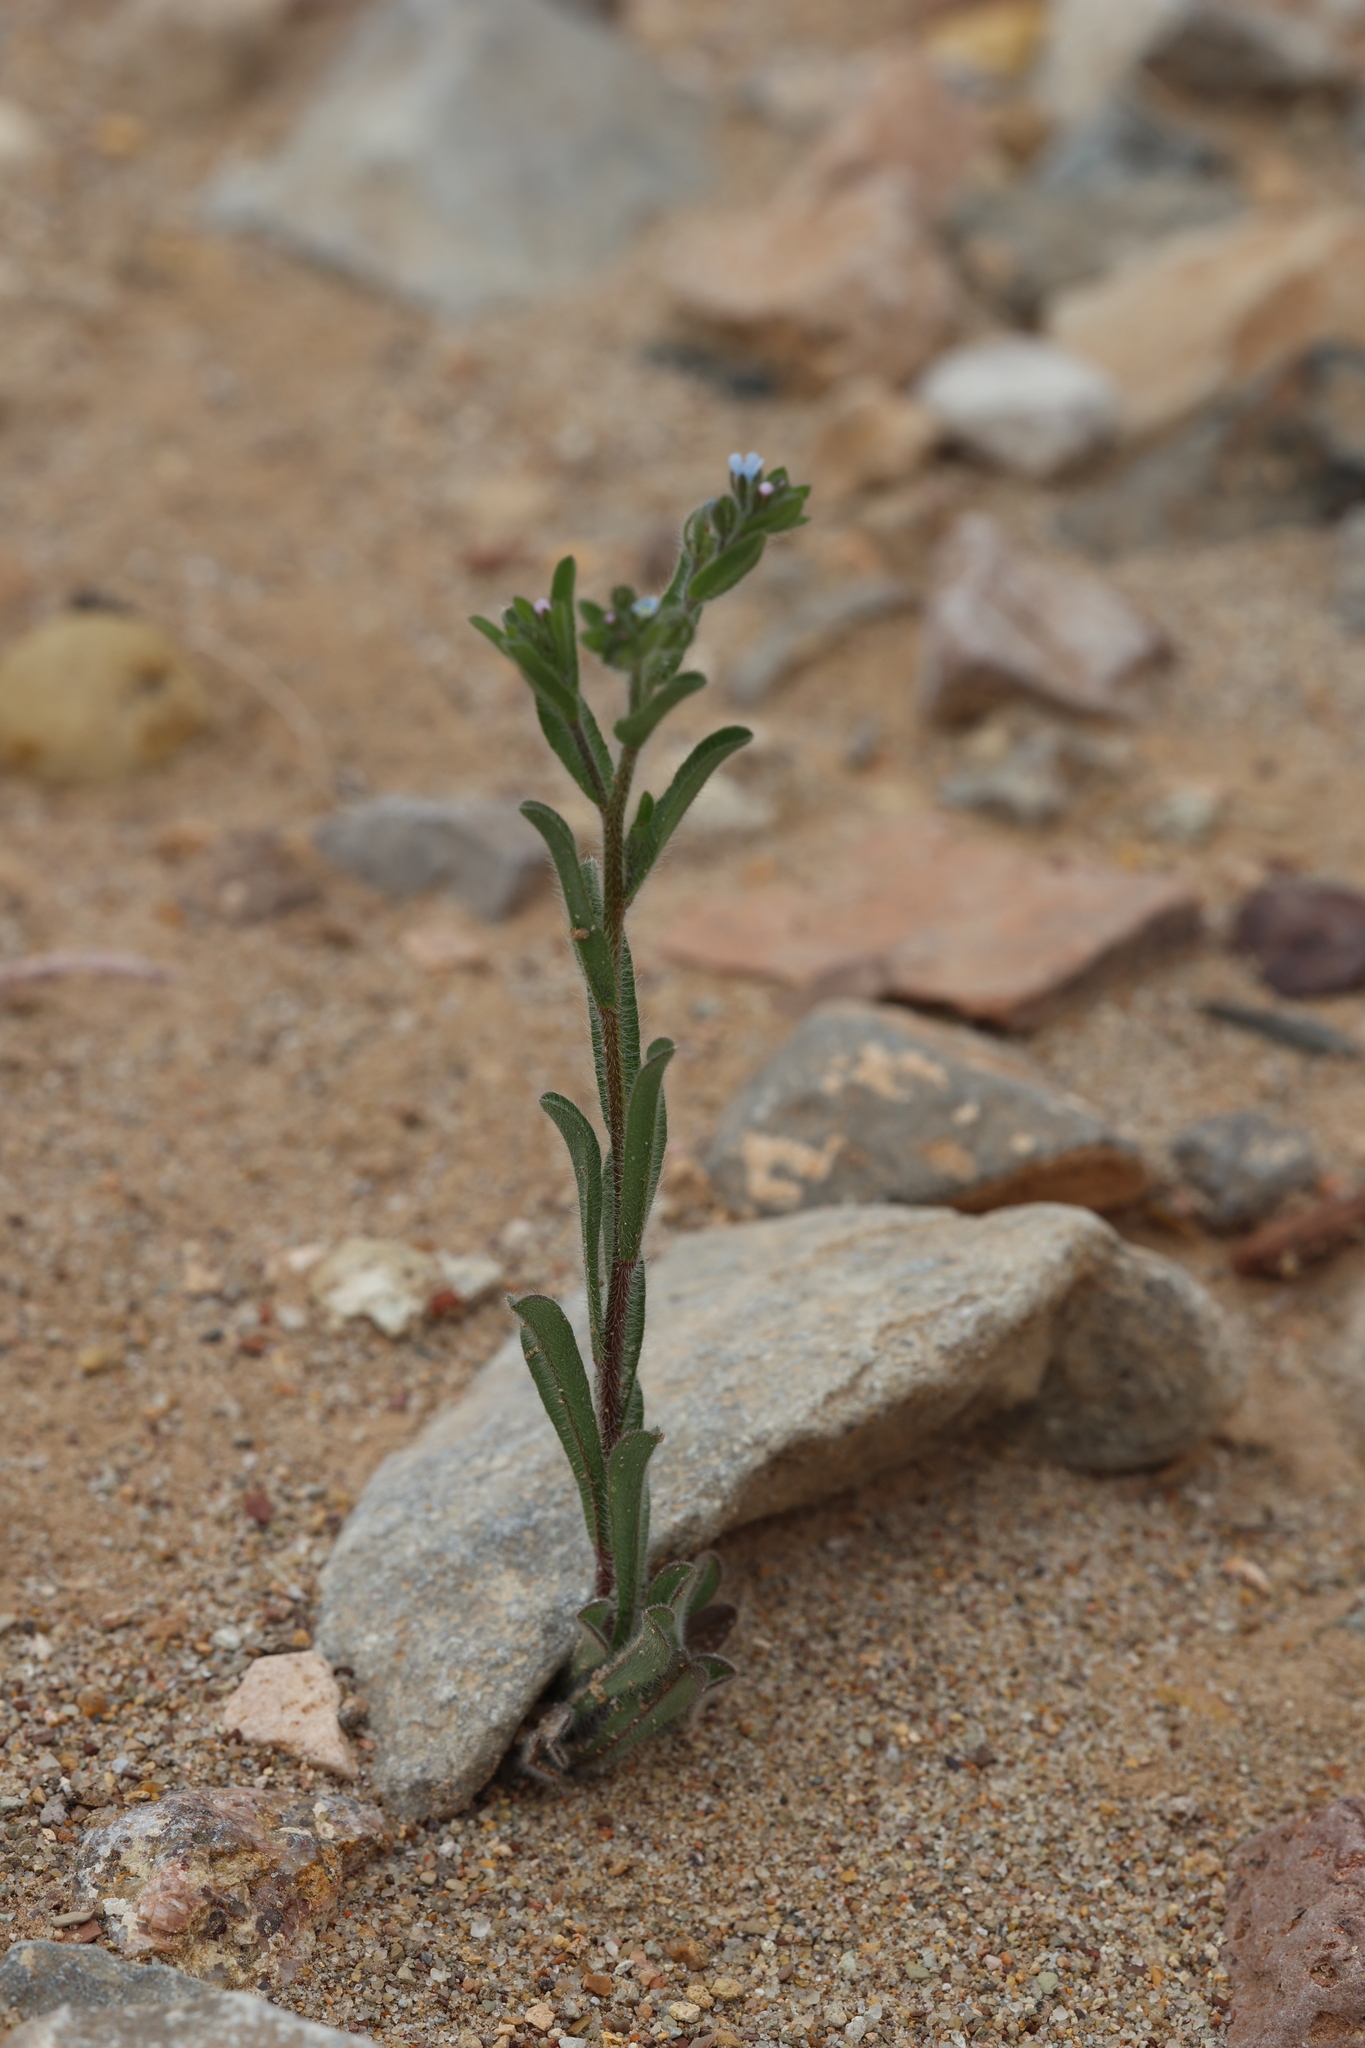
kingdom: Plantae
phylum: Tracheophyta
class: Magnoliopsida
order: Boraginales
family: Boraginaceae
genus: Lappula
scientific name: Lappula occidentalis
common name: Western stickseed
